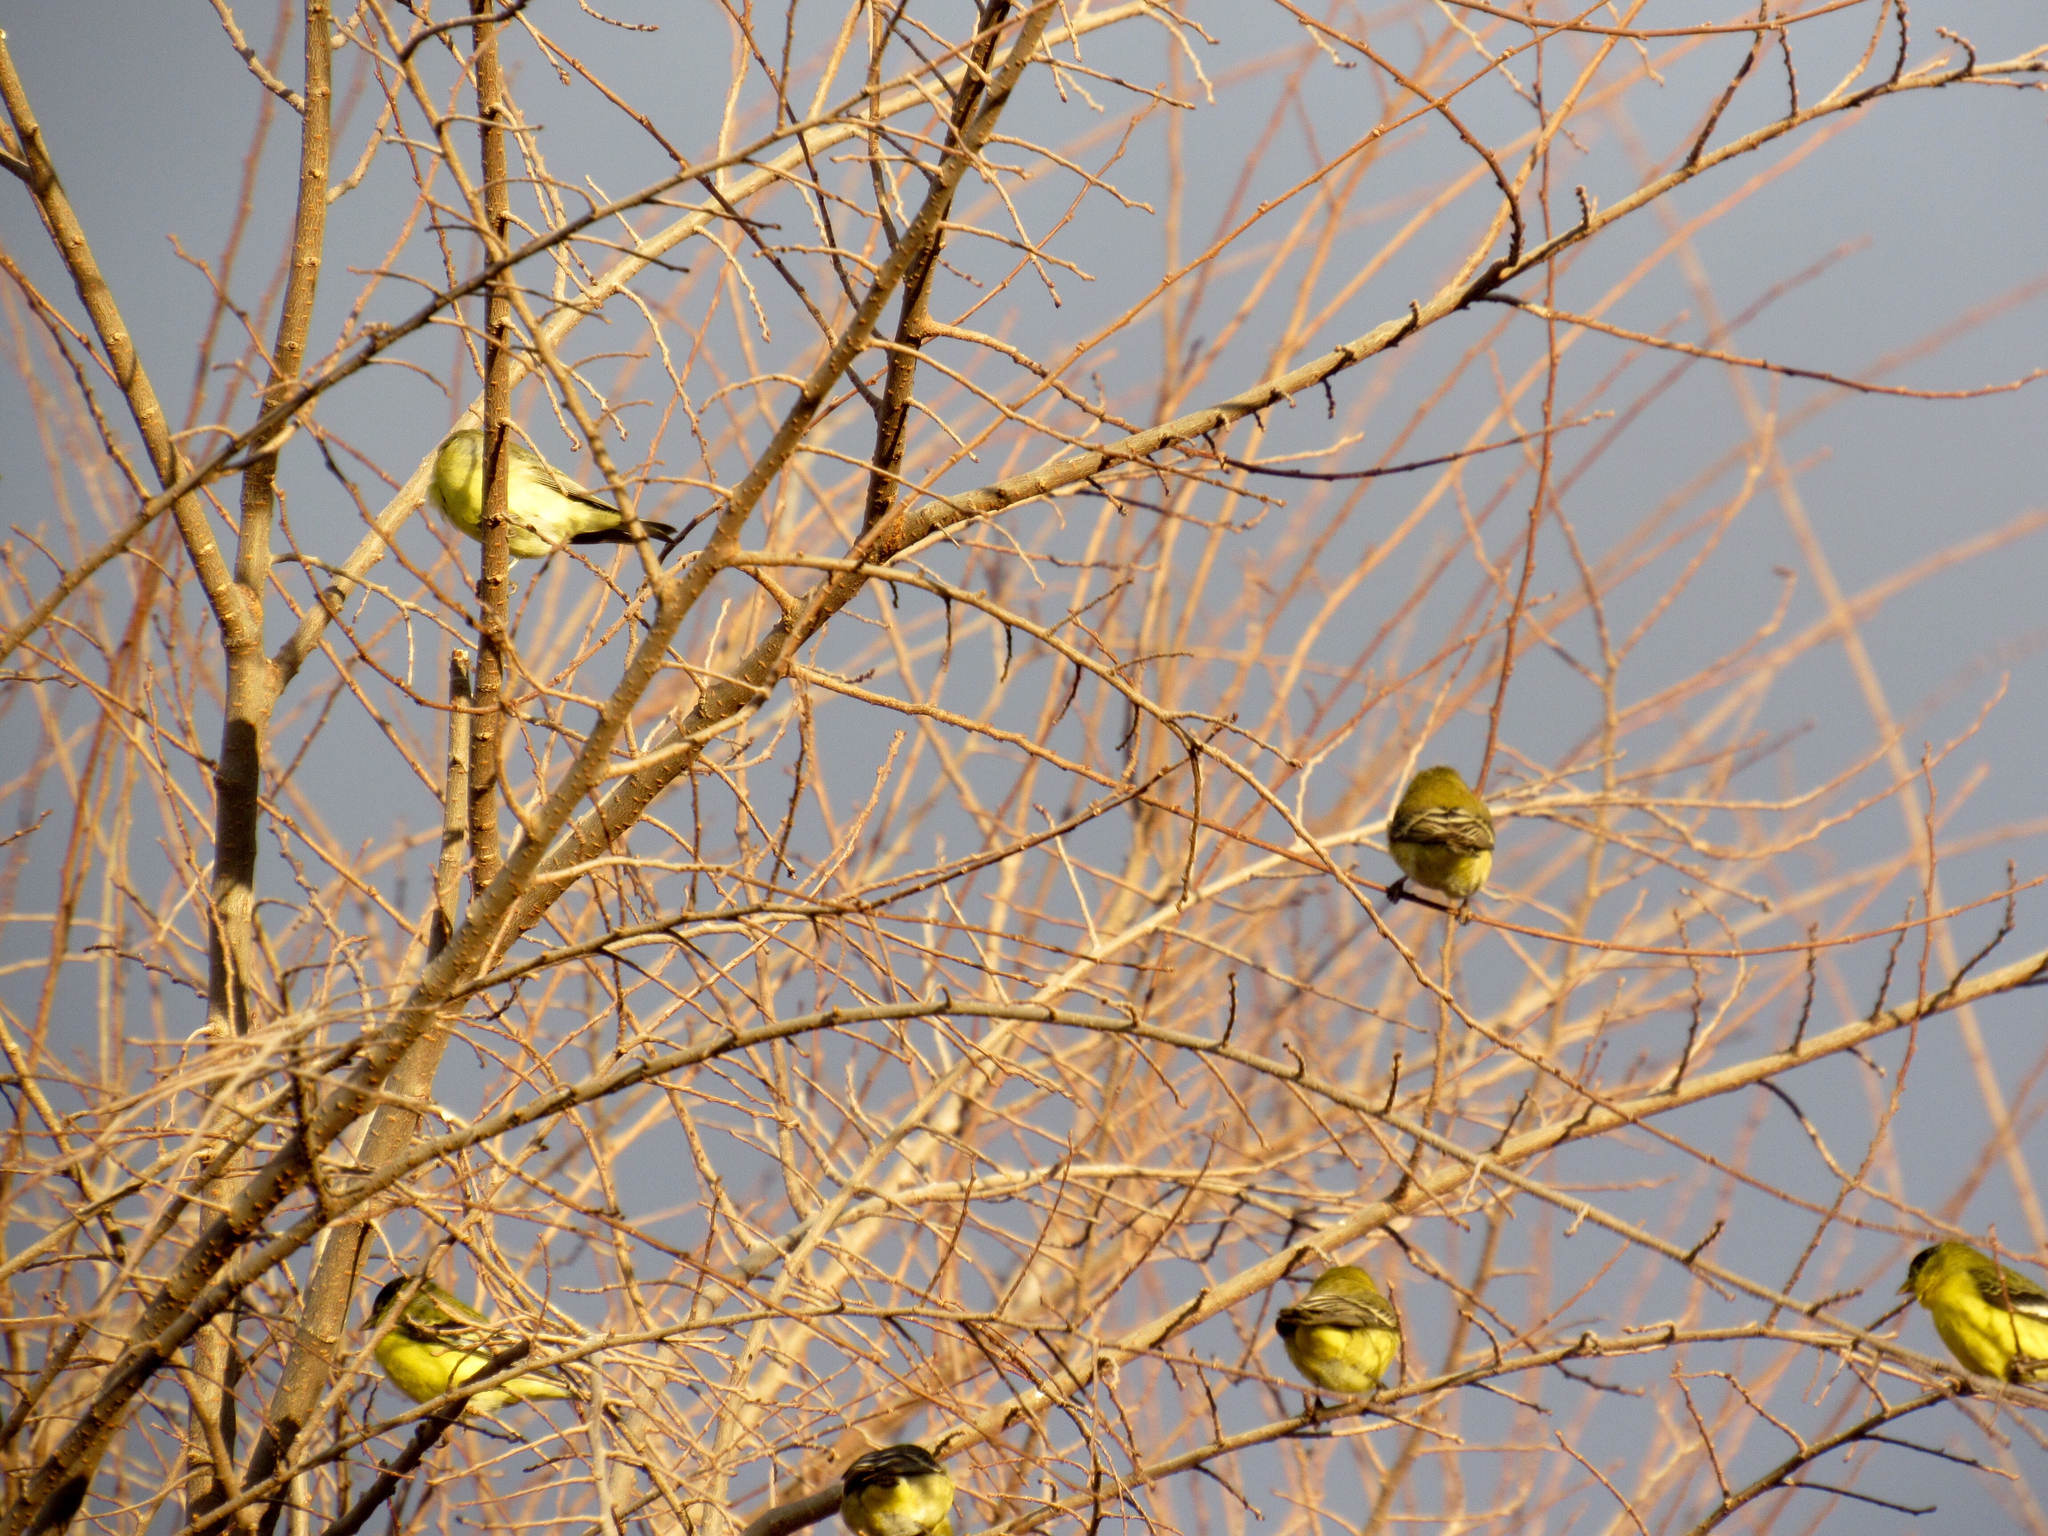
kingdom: Animalia
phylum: Chordata
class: Aves
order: Passeriformes
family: Fringillidae
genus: Spinus
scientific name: Spinus psaltria
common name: Lesser goldfinch
